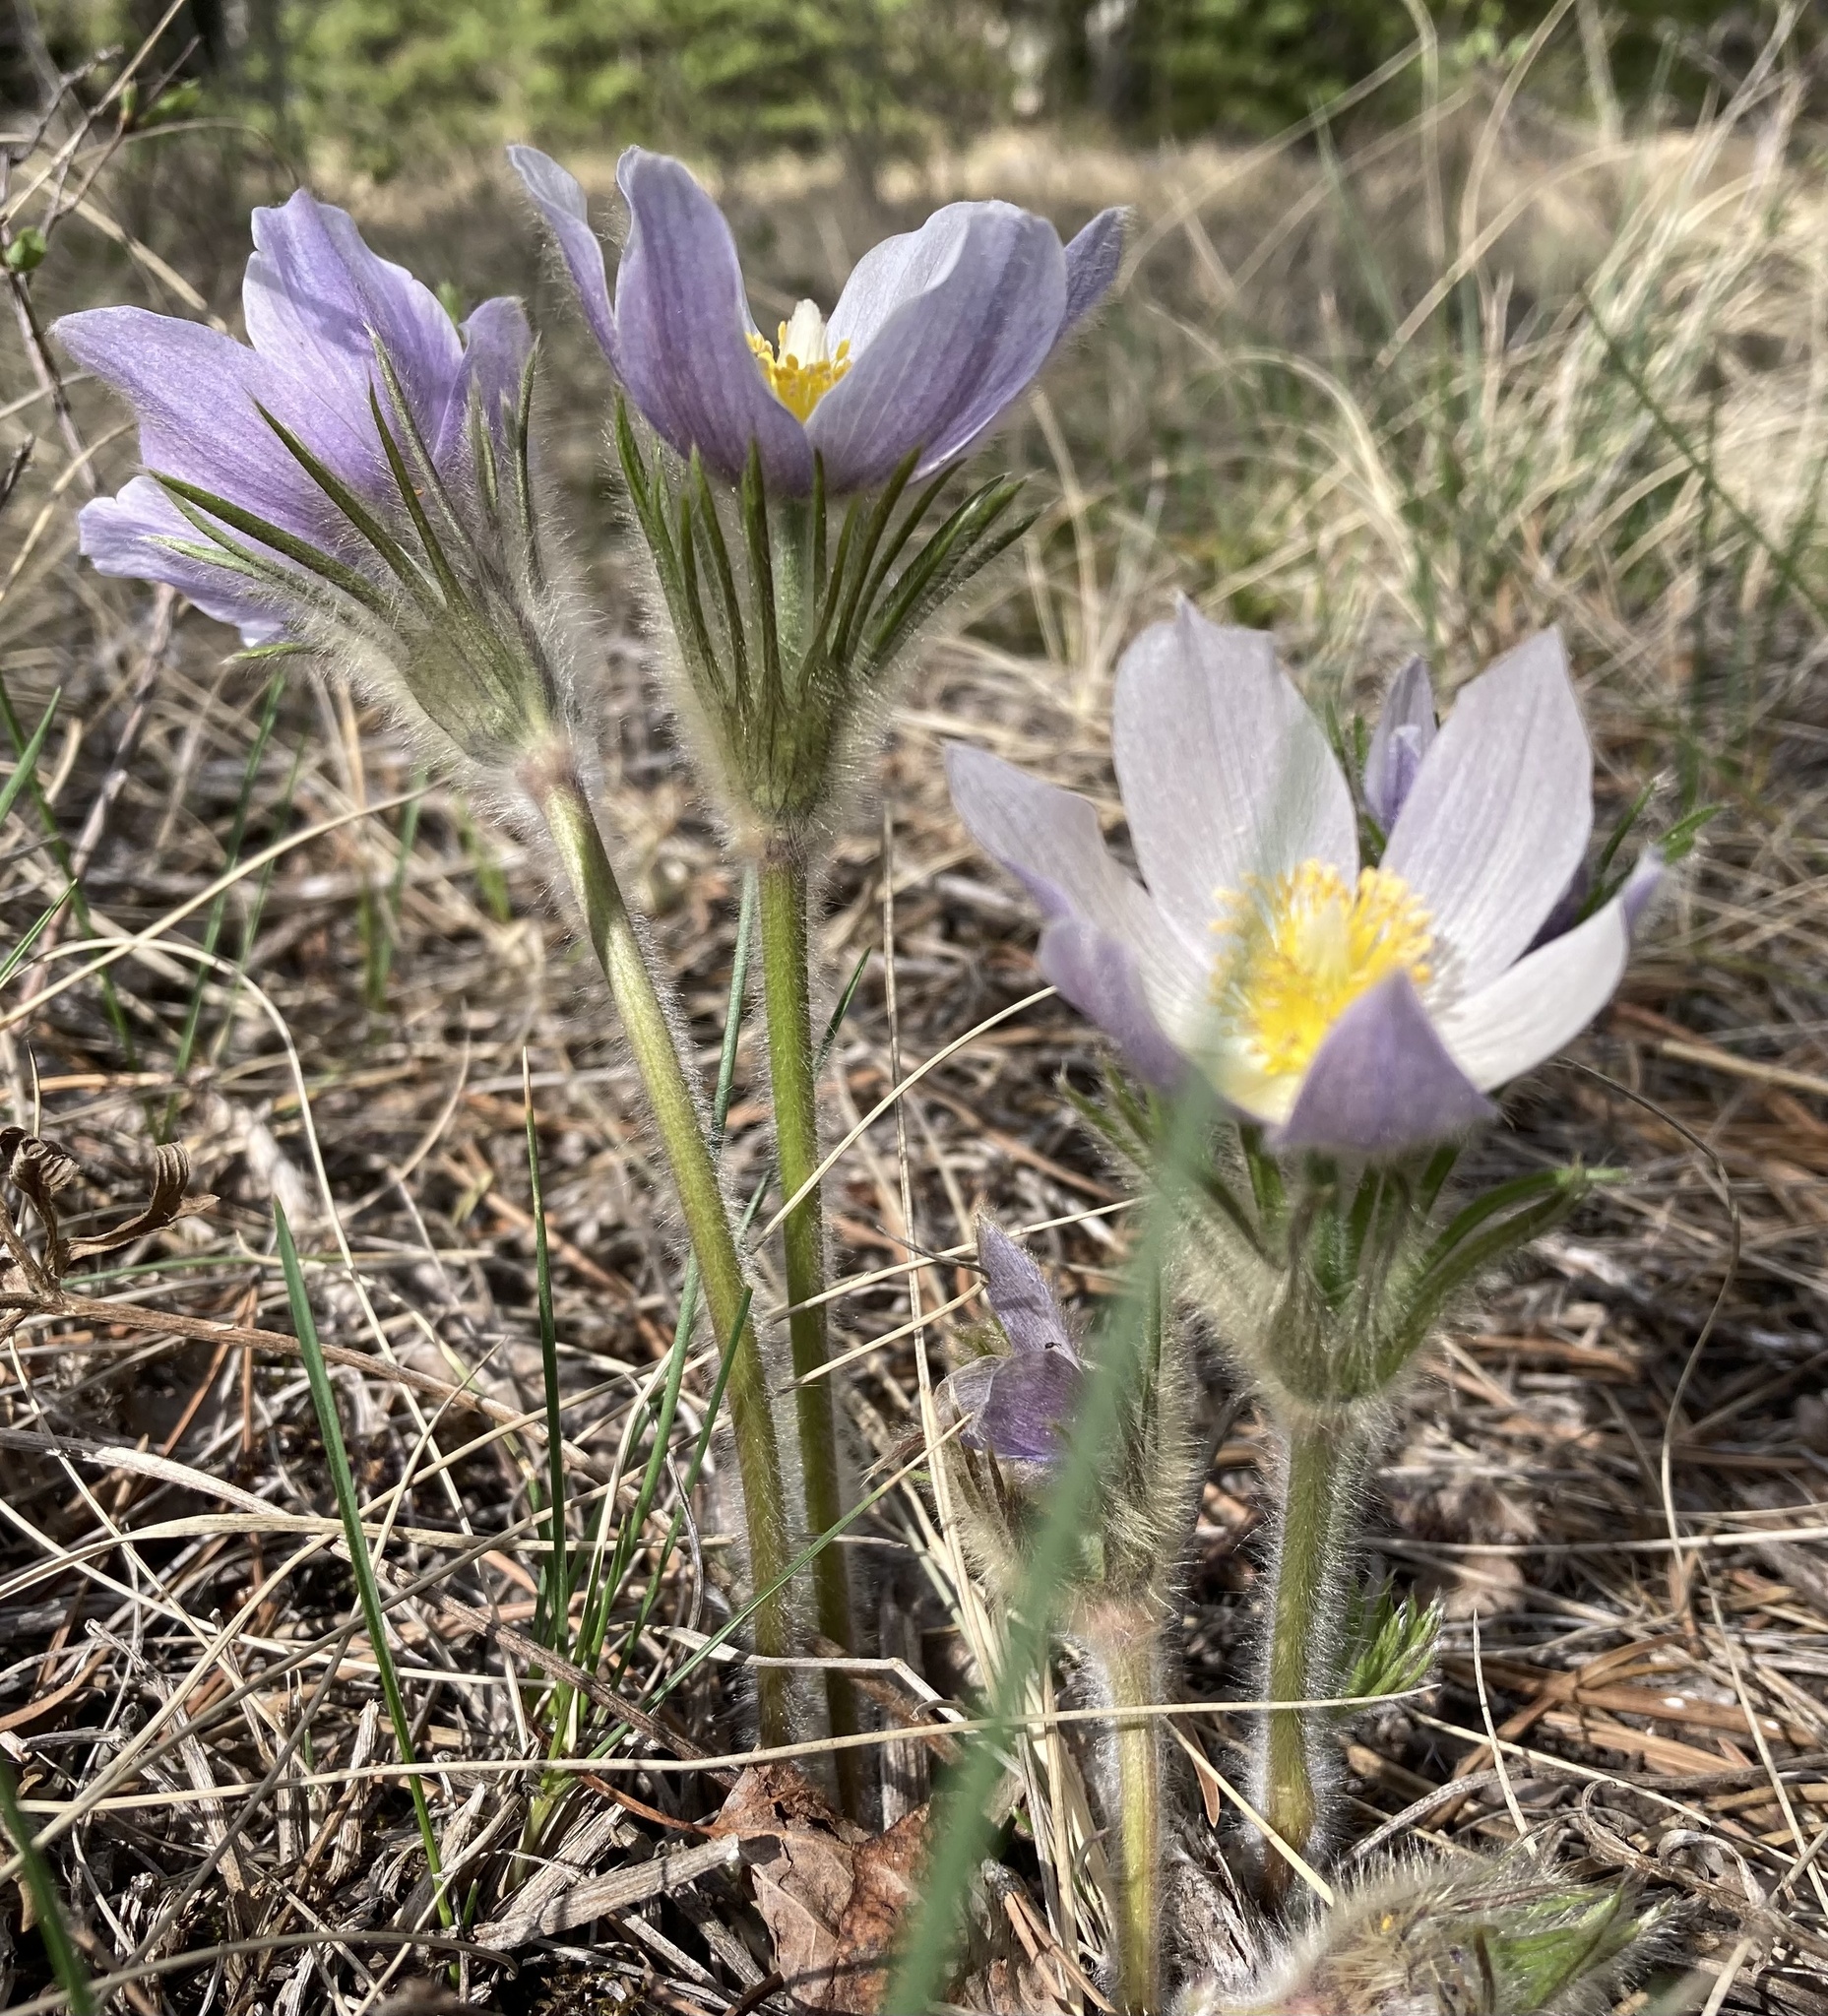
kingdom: Plantae
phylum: Tracheophyta
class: Magnoliopsida
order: Ranunculales
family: Ranunculaceae
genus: Pulsatilla
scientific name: Pulsatilla nuttalliana
